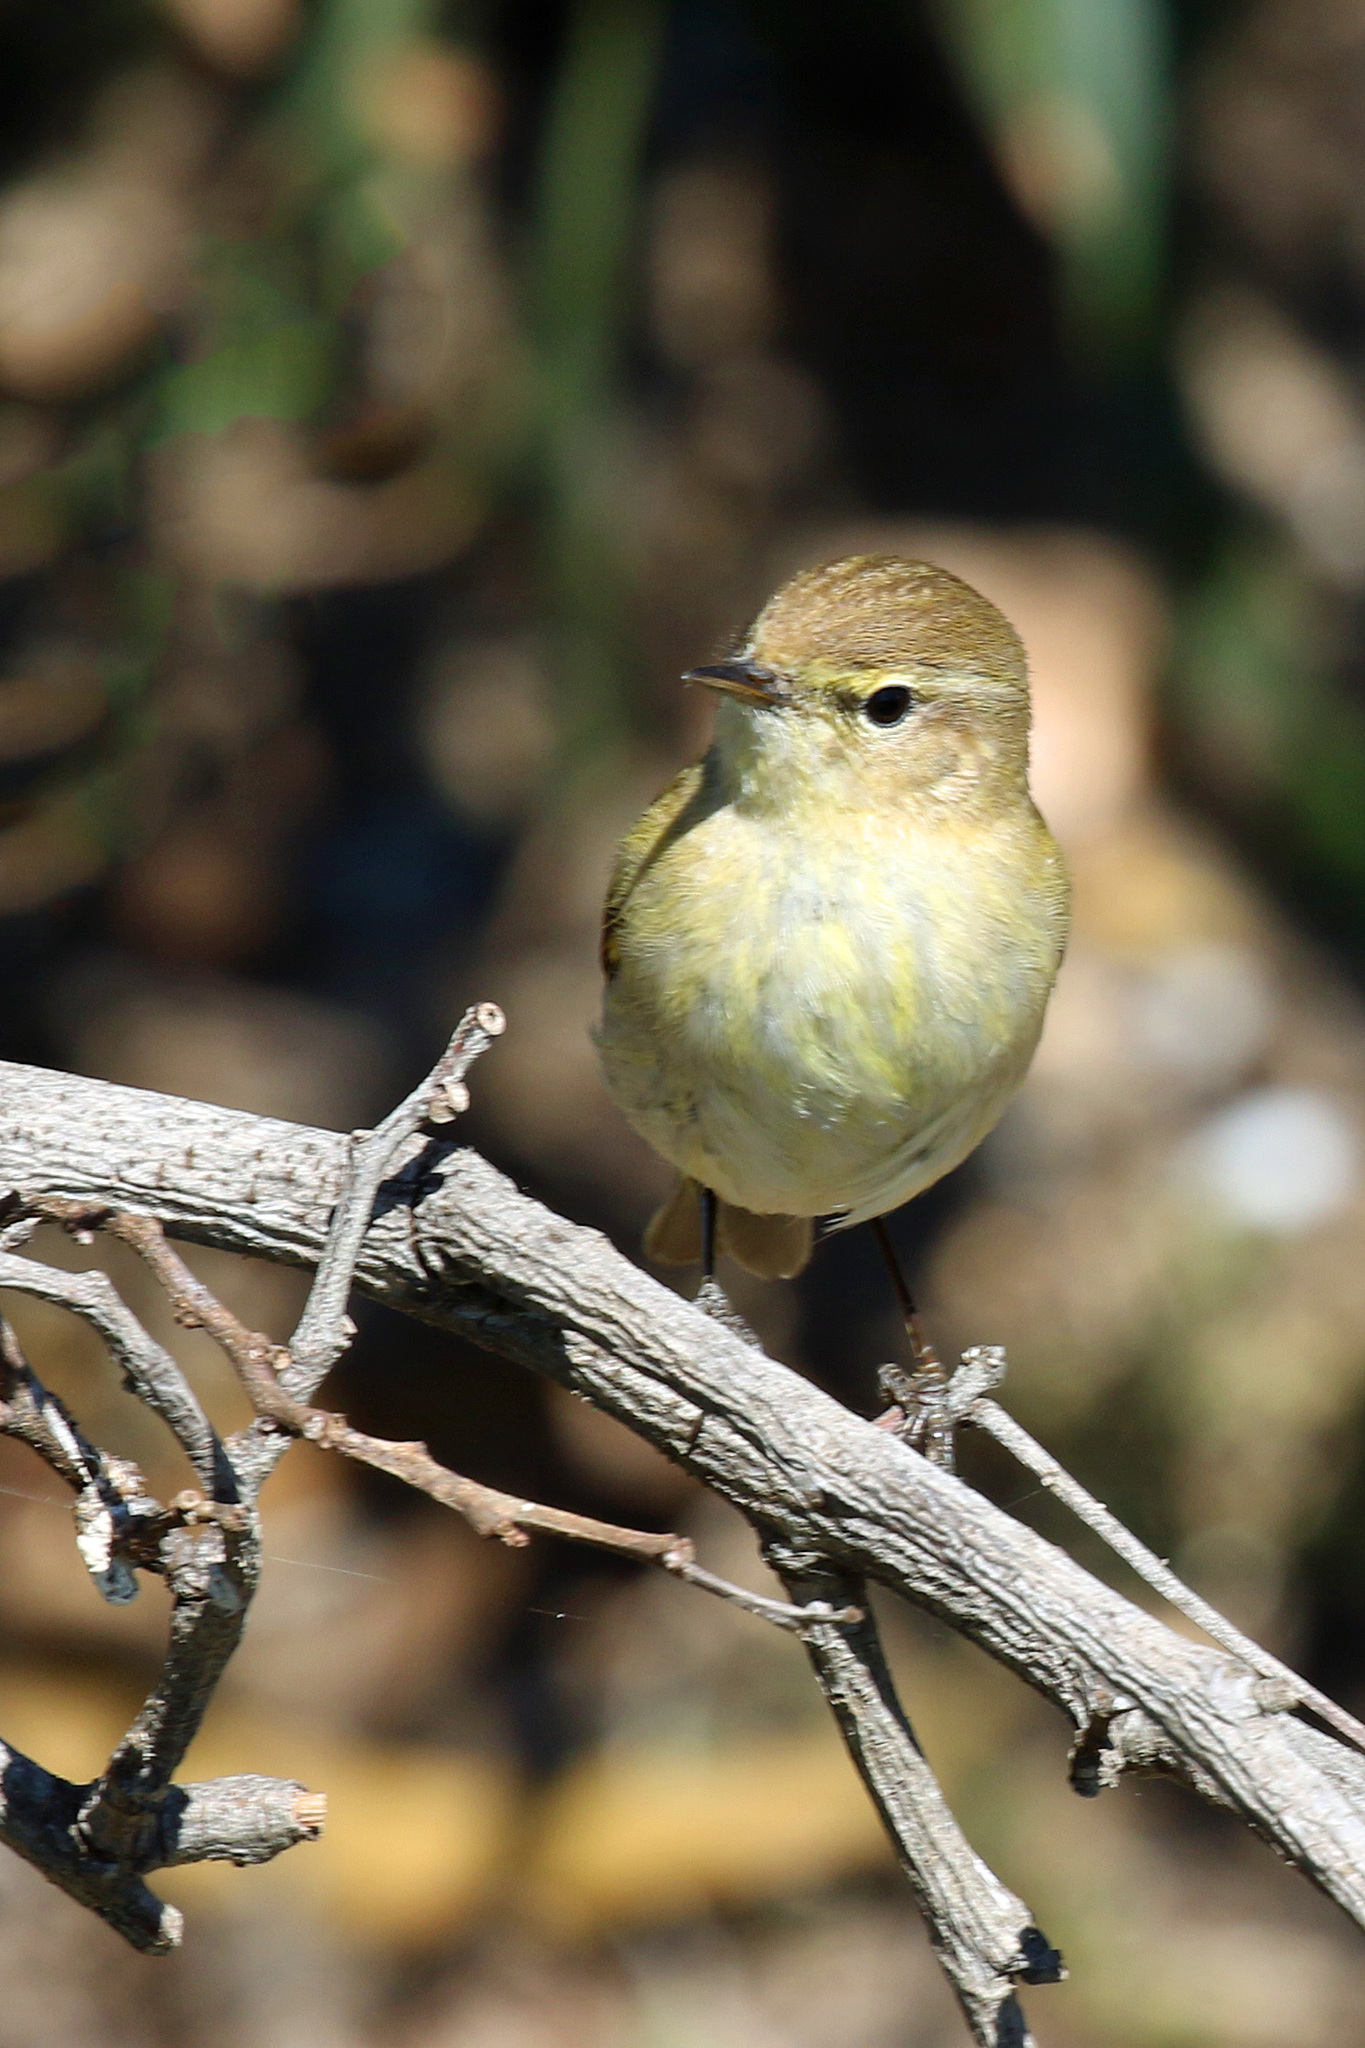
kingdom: Animalia
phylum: Chordata
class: Aves
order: Passeriformes
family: Phylloscopidae
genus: Phylloscopus
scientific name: Phylloscopus collybita
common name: Common chiffchaff
